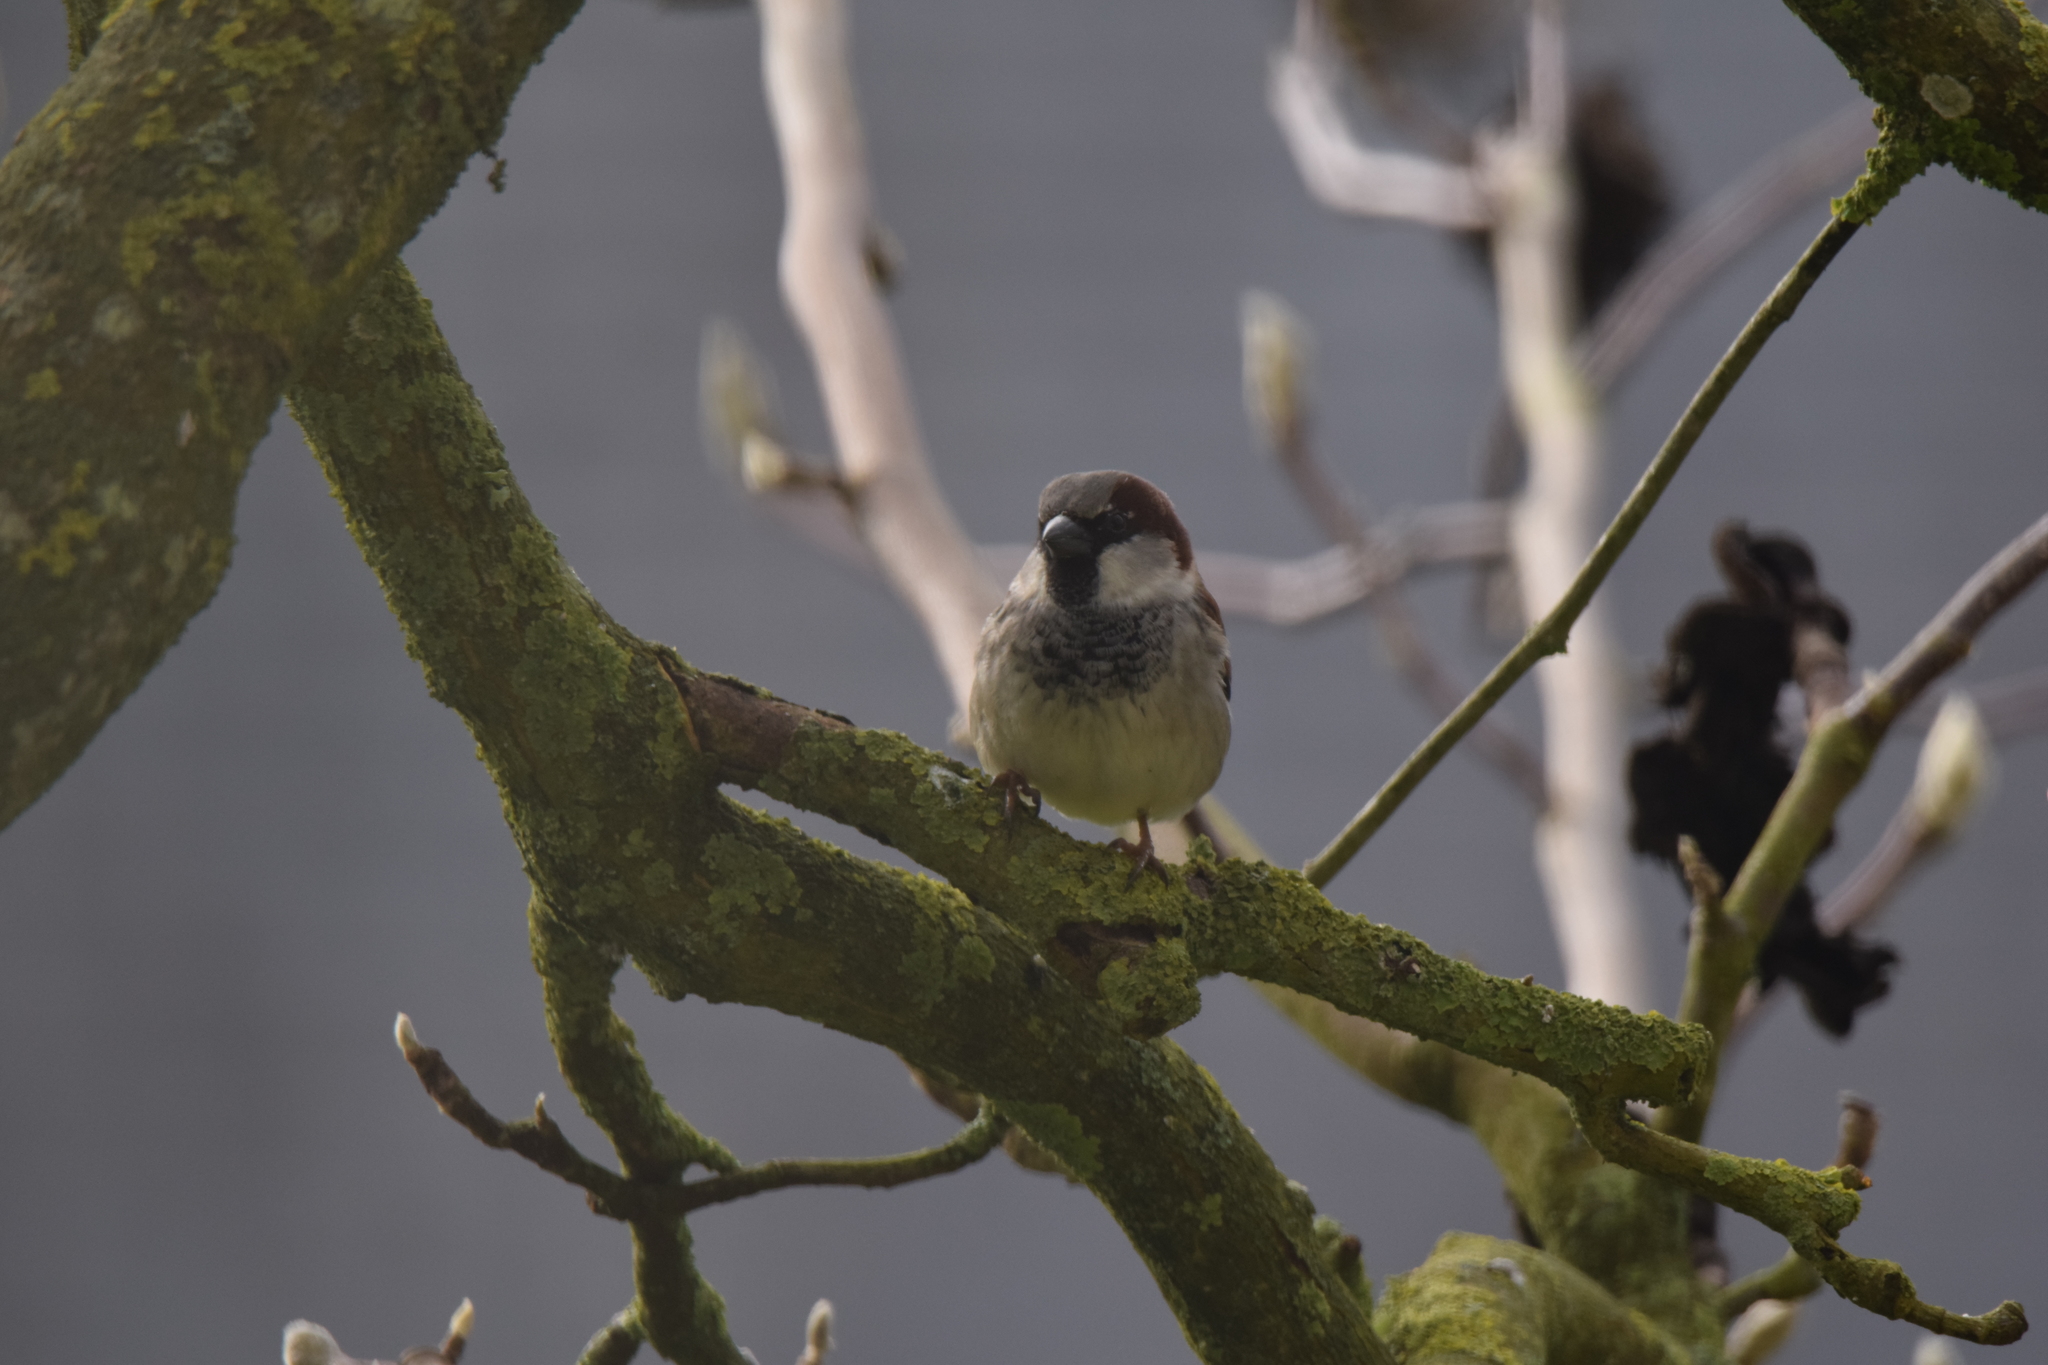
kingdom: Animalia
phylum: Chordata
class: Aves
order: Passeriformes
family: Passeridae
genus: Passer
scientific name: Passer domesticus
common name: House sparrow
